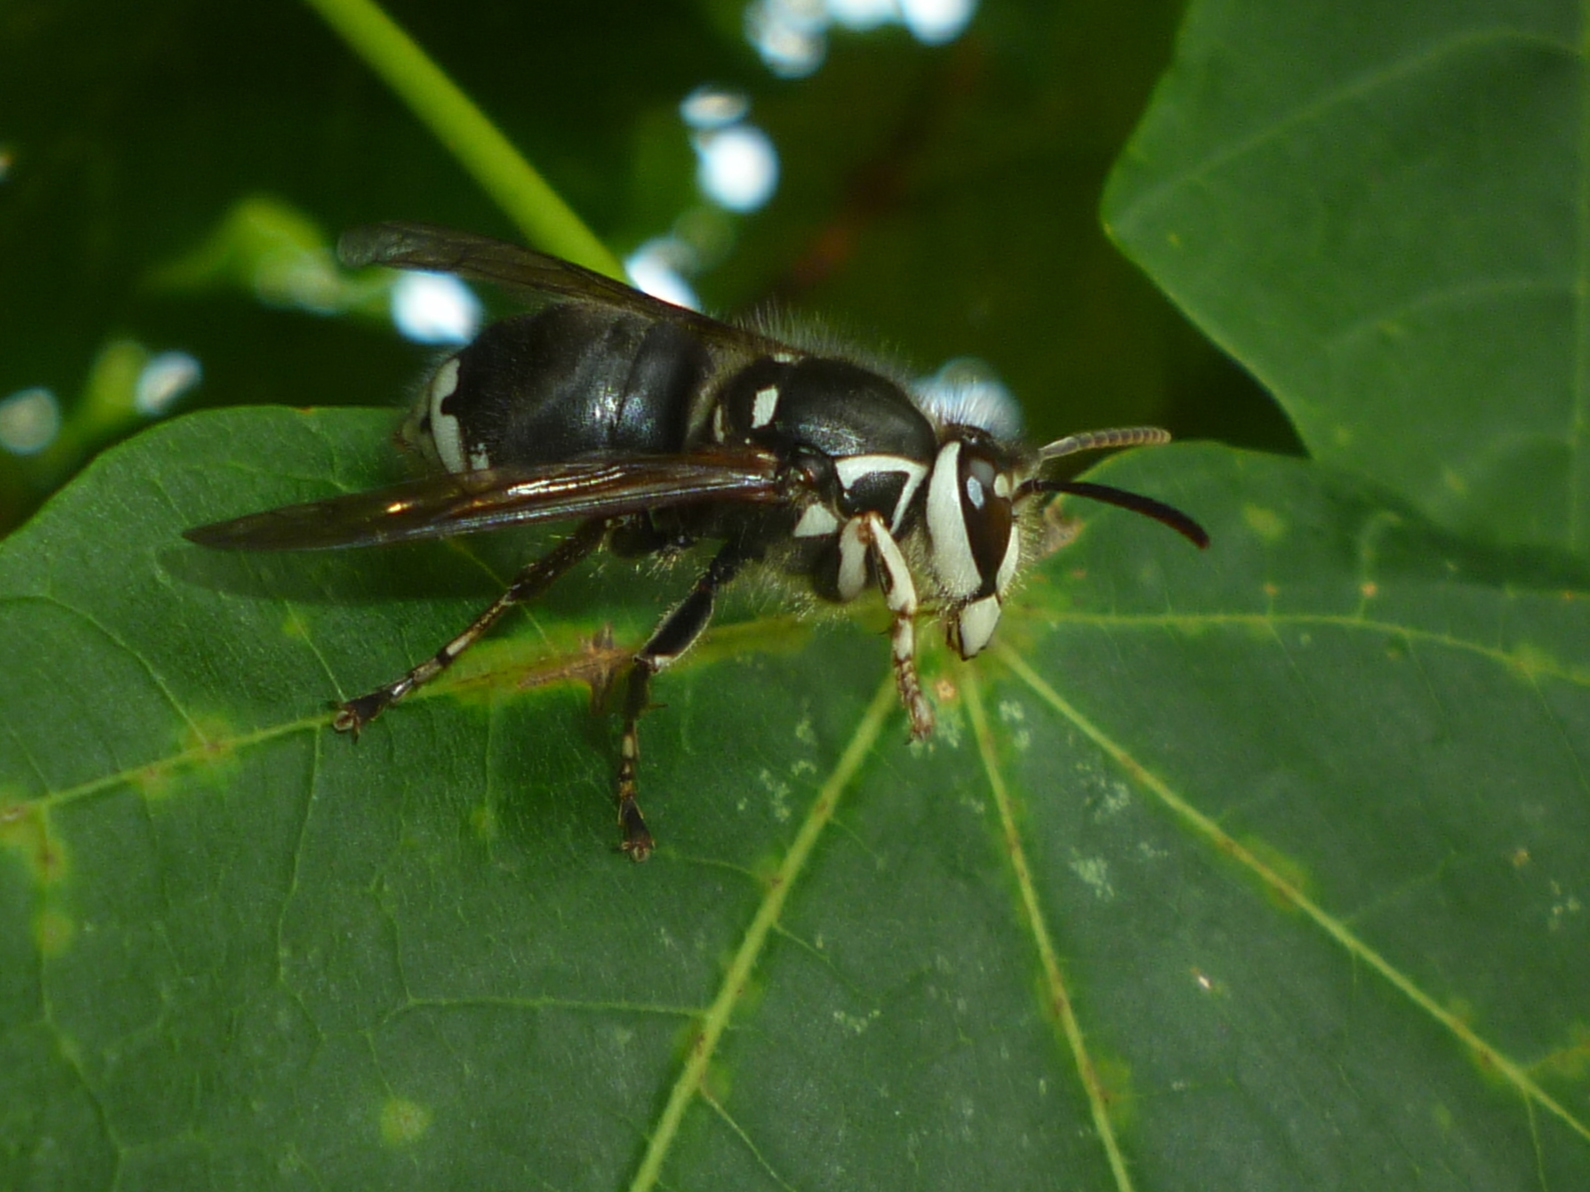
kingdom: Animalia
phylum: Arthropoda
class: Insecta
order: Hymenoptera
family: Vespidae
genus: Dolichovespula
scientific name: Dolichovespula maculata
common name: Bald-faced hornet
